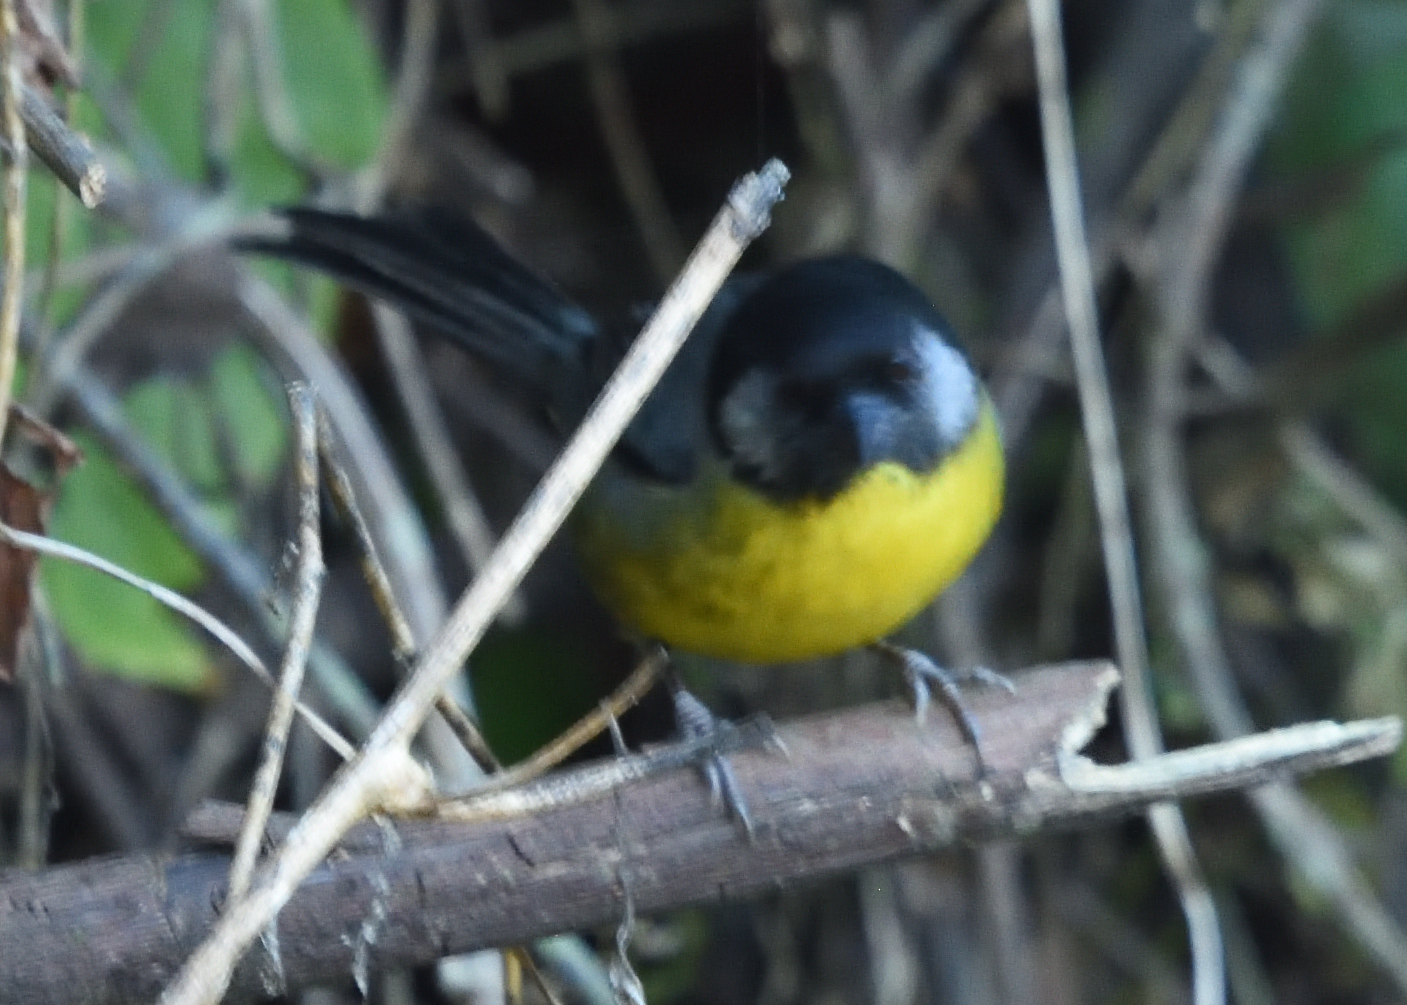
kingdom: Animalia
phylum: Chordata
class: Aves
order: Passeriformes
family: Passerellidae
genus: Atlapetes
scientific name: Atlapetes melanocephalus
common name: Santa marta brush-finch
